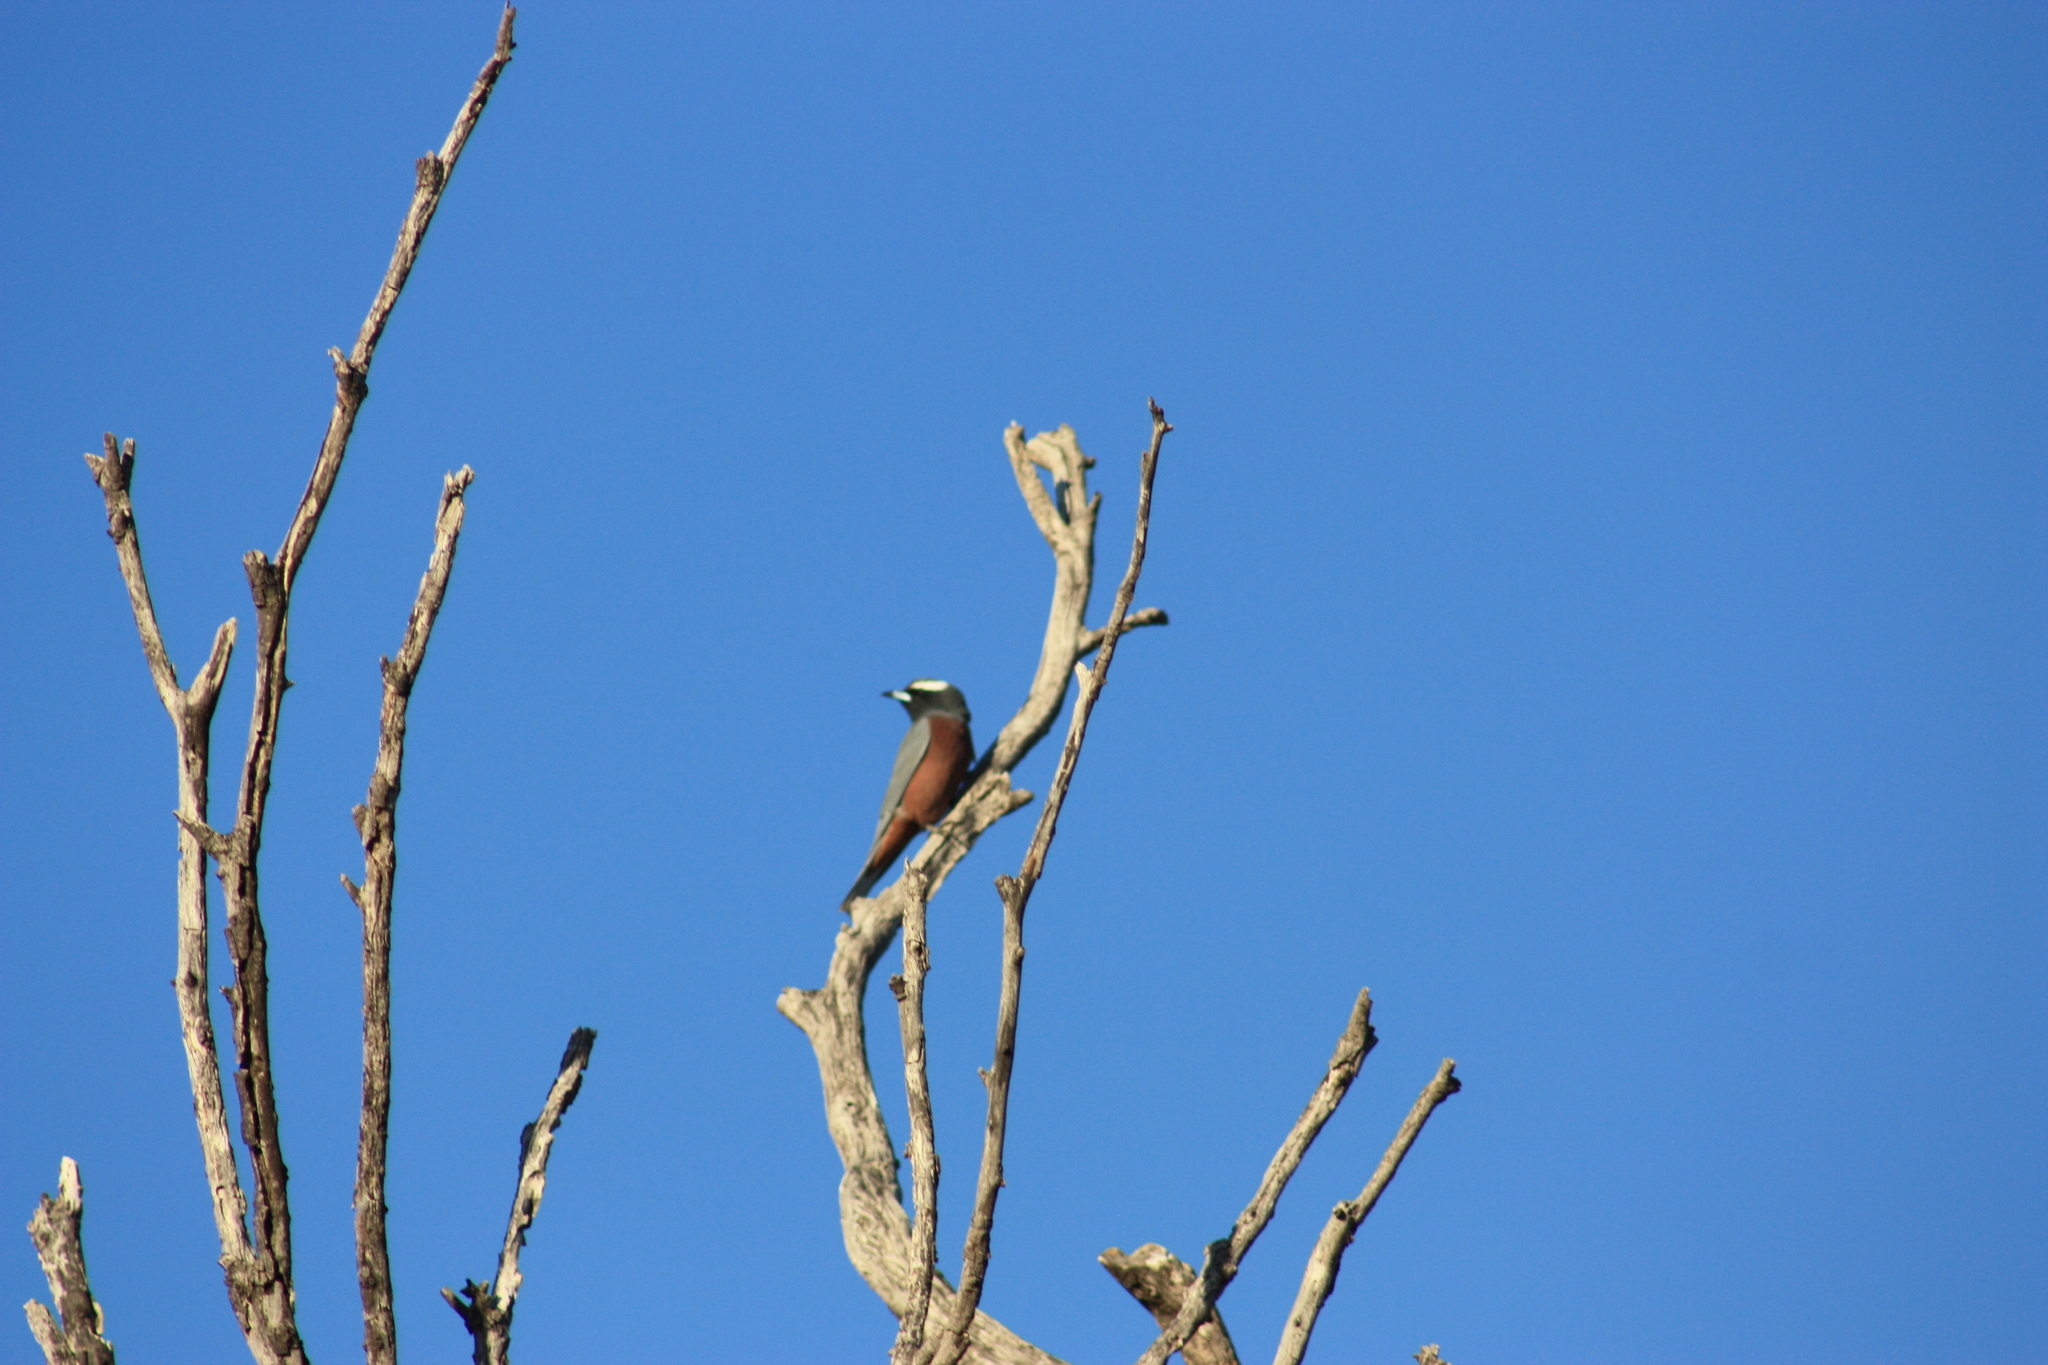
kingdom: Animalia
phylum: Chordata
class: Aves
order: Passeriformes
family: Artamidae
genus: Artamus
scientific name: Artamus superciliosus
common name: White-browed woodswallow
